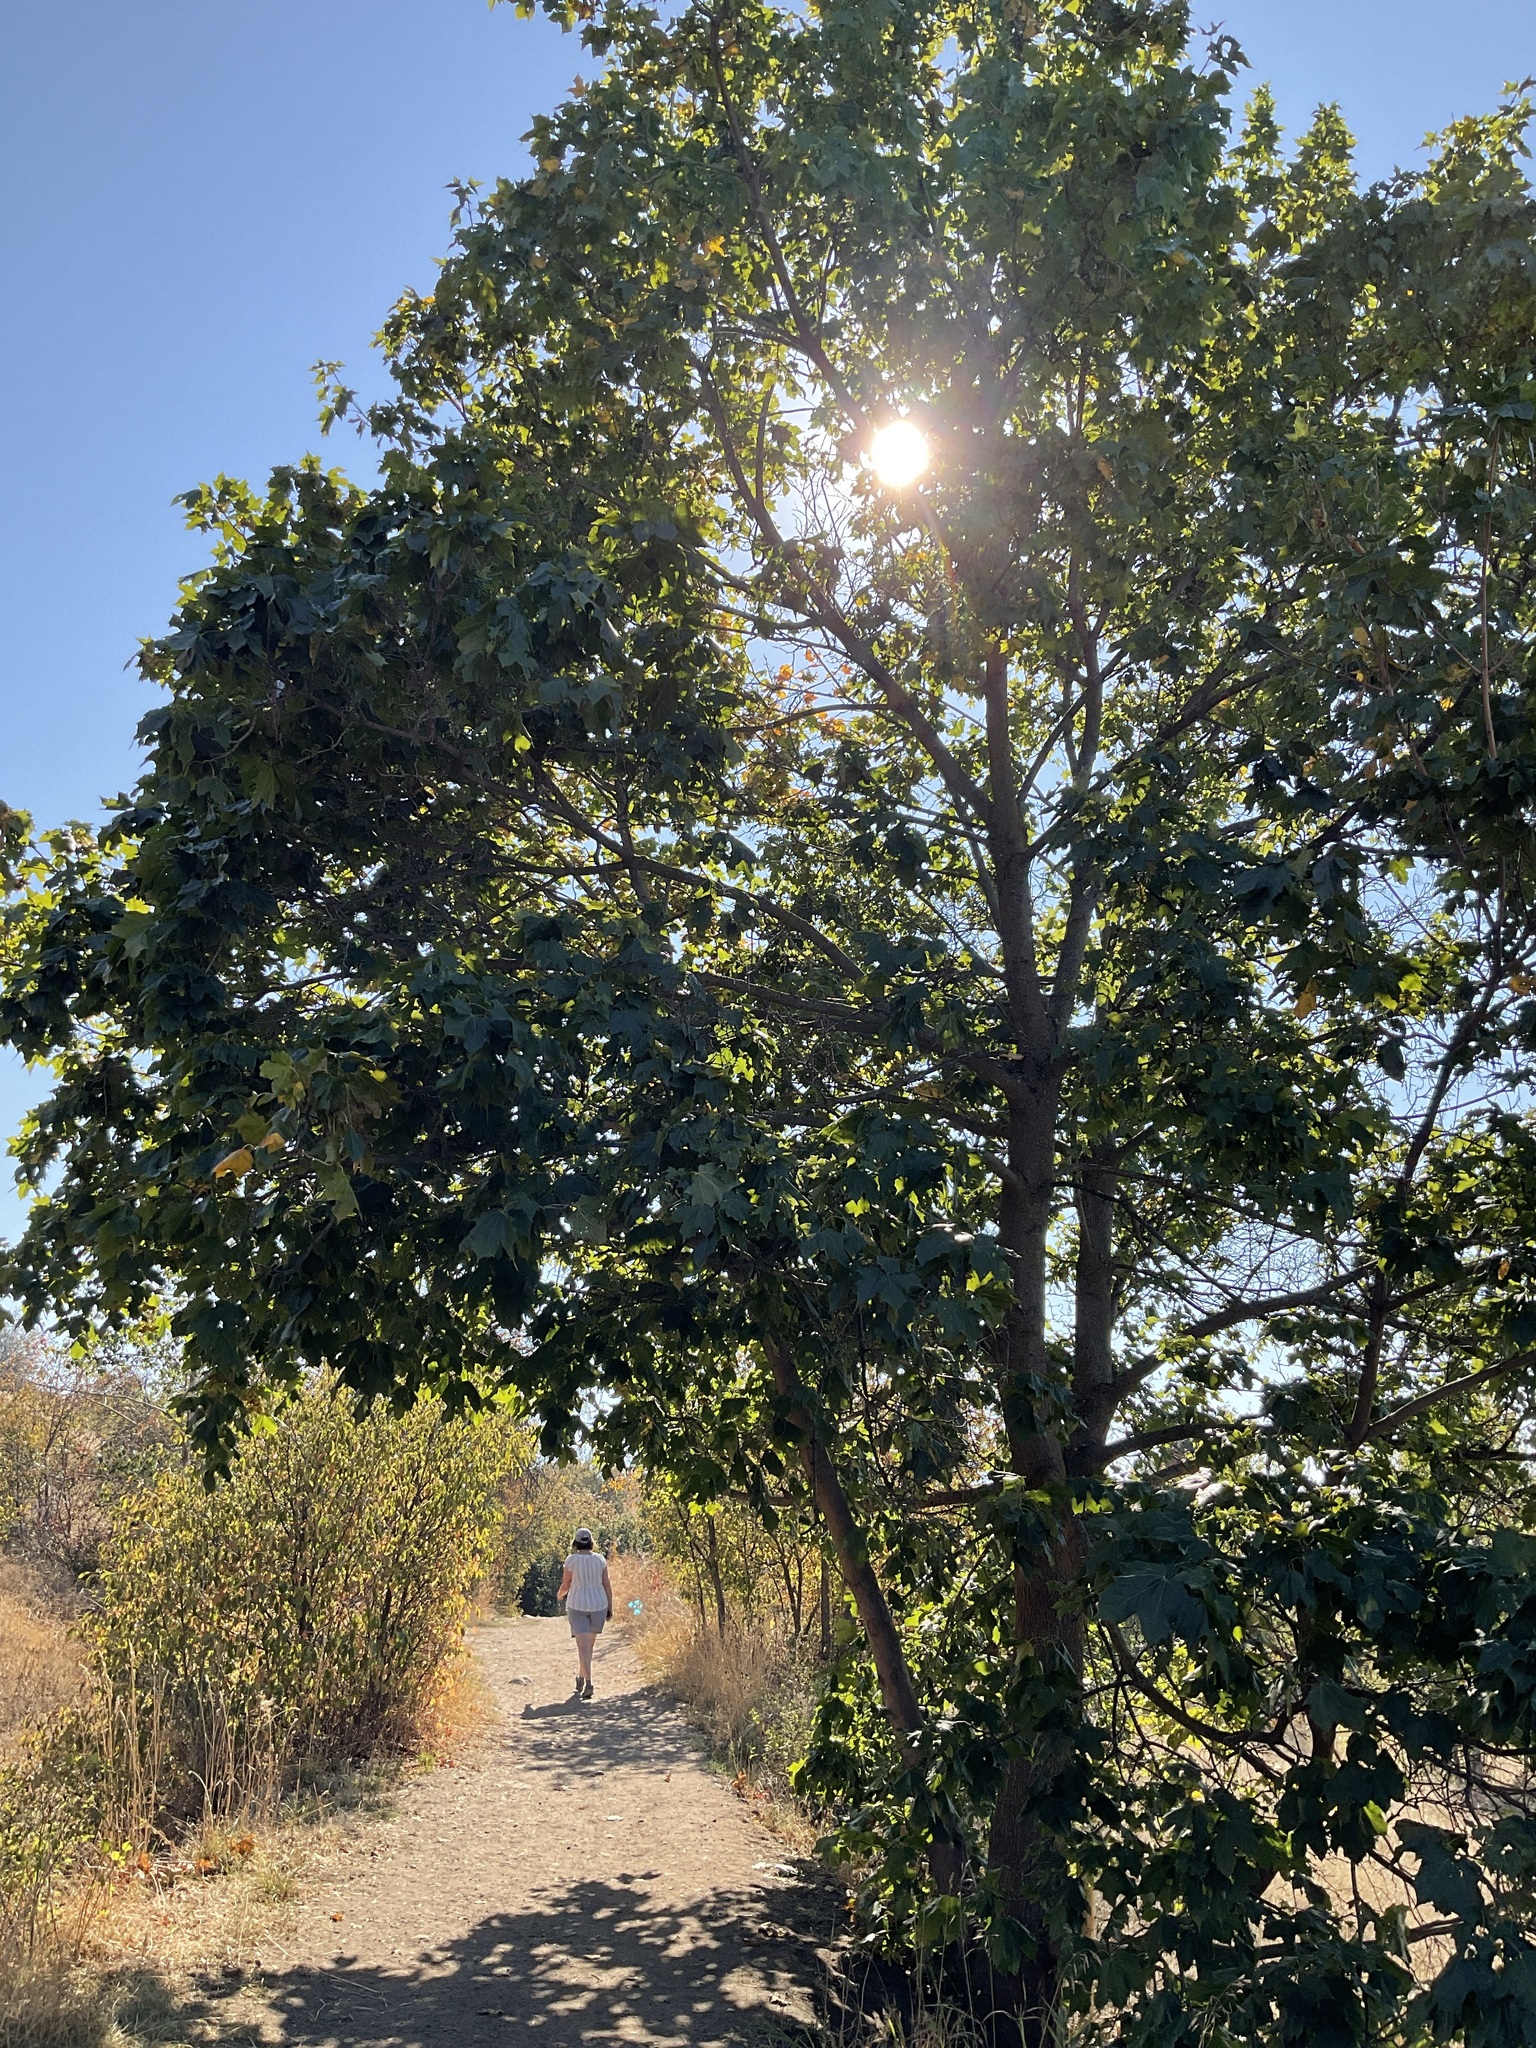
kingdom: Plantae
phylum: Tracheophyta
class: Magnoliopsida
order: Sapindales
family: Sapindaceae
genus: Acer
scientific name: Acer platanoides
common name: Norway maple
